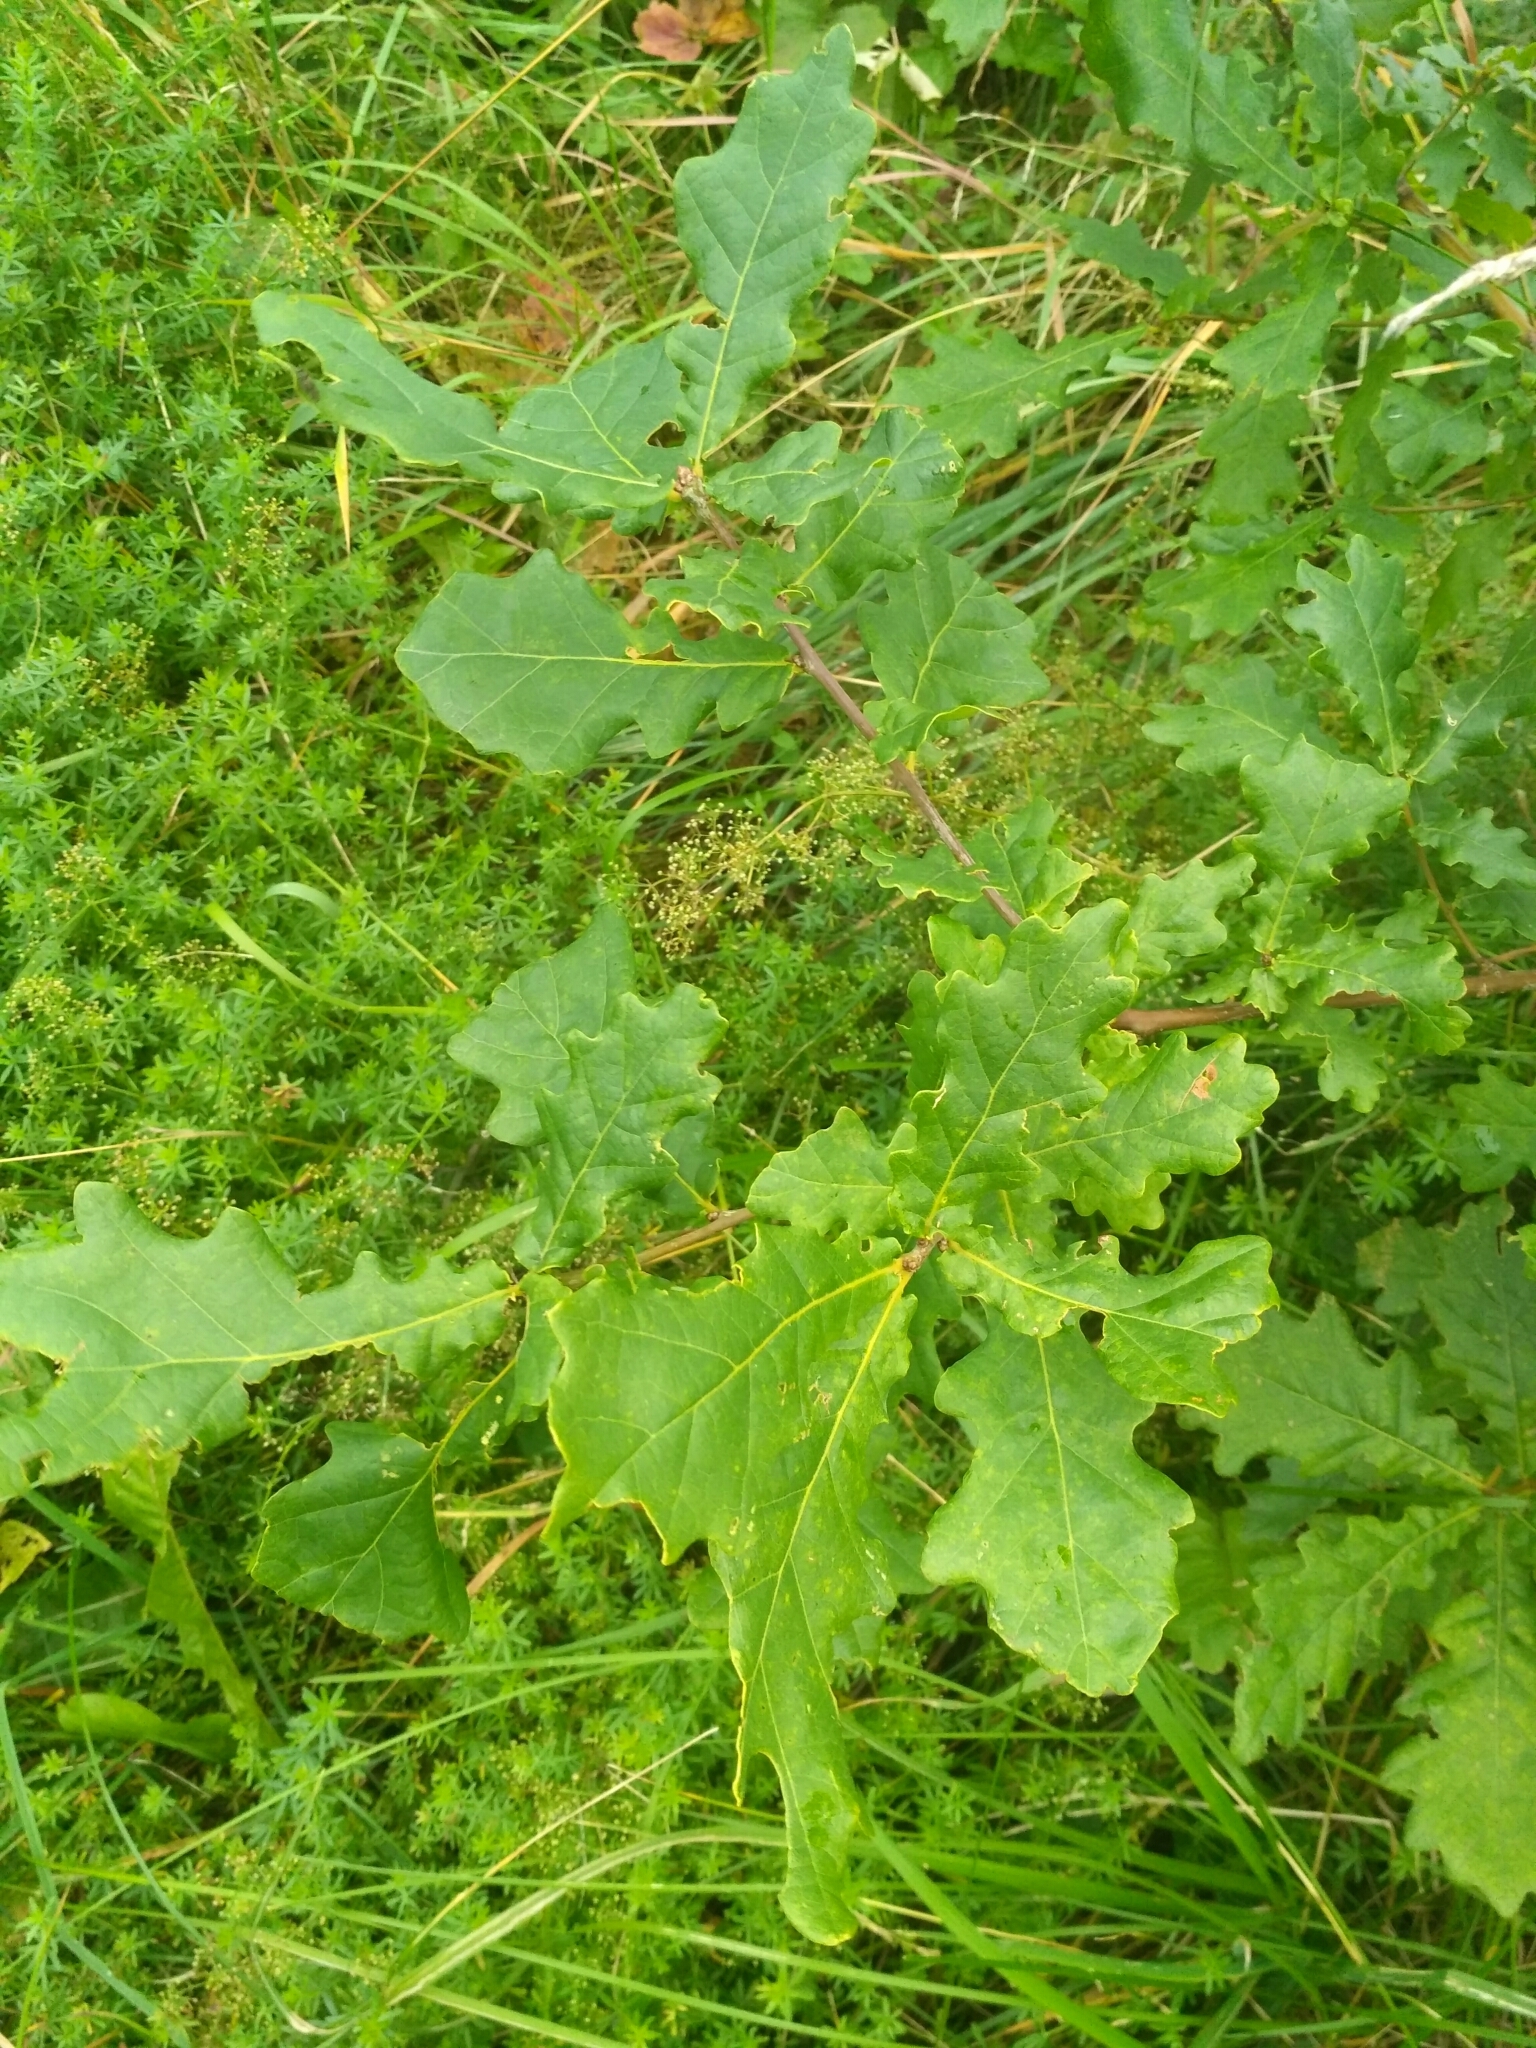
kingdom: Plantae
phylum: Tracheophyta
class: Magnoliopsida
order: Fagales
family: Fagaceae
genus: Quercus
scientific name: Quercus robur
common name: Pedunculate oak
